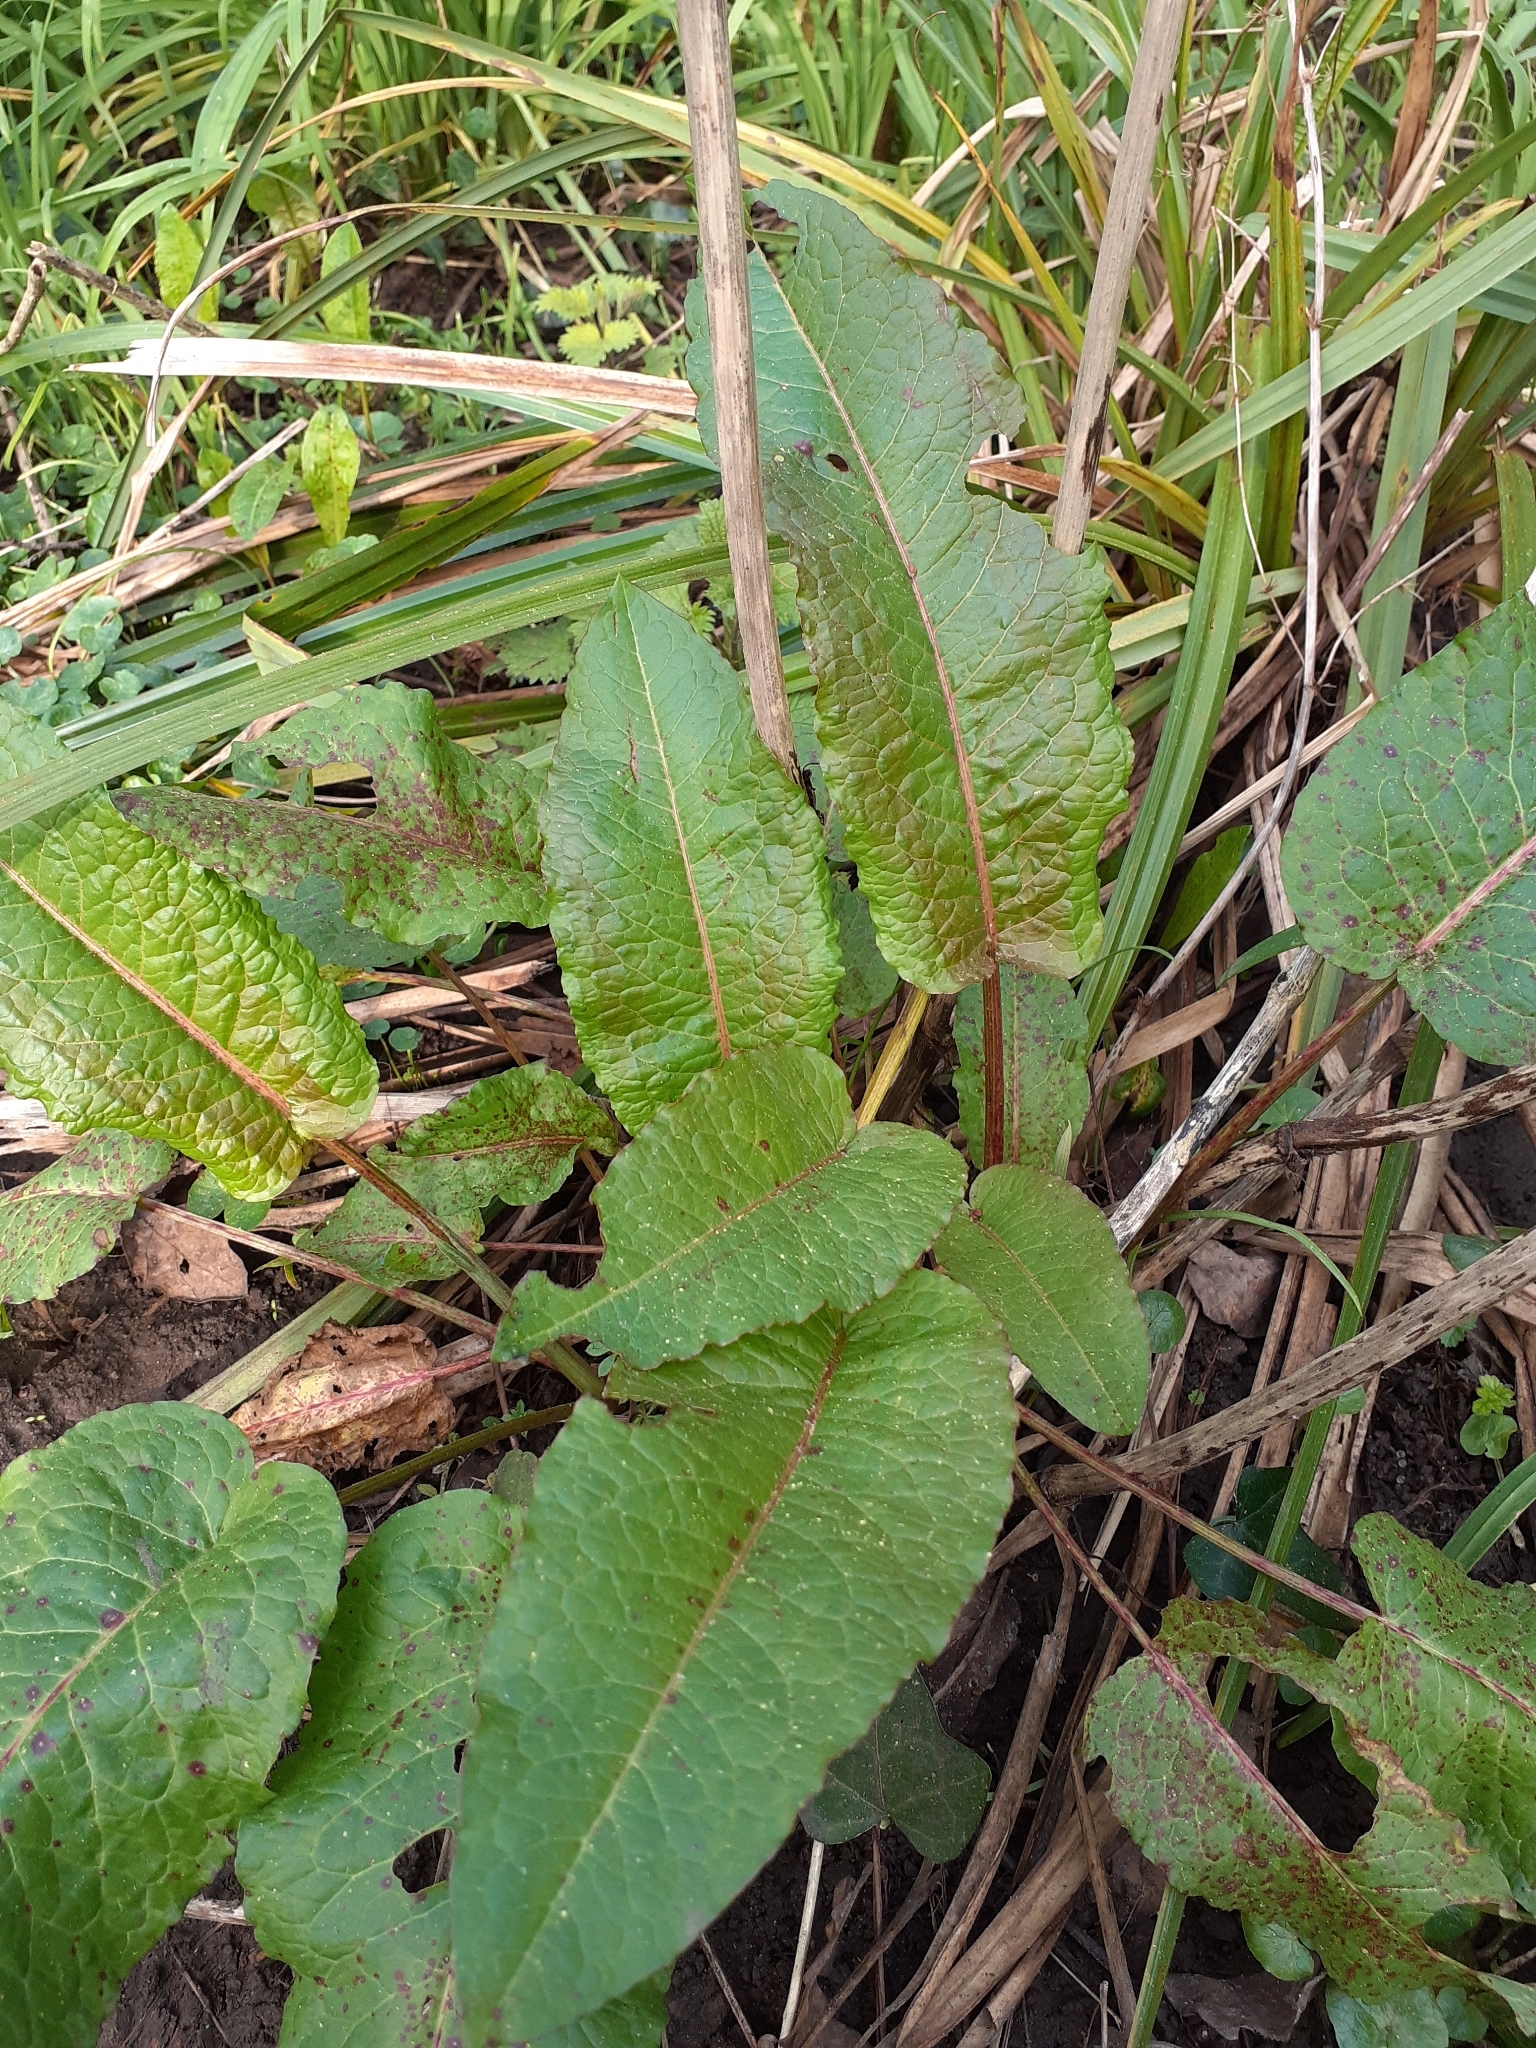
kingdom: Plantae
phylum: Tracheophyta
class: Magnoliopsida
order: Caryophyllales
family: Polygonaceae
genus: Rumex
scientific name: Rumex obtusifolius
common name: Bitter dock
